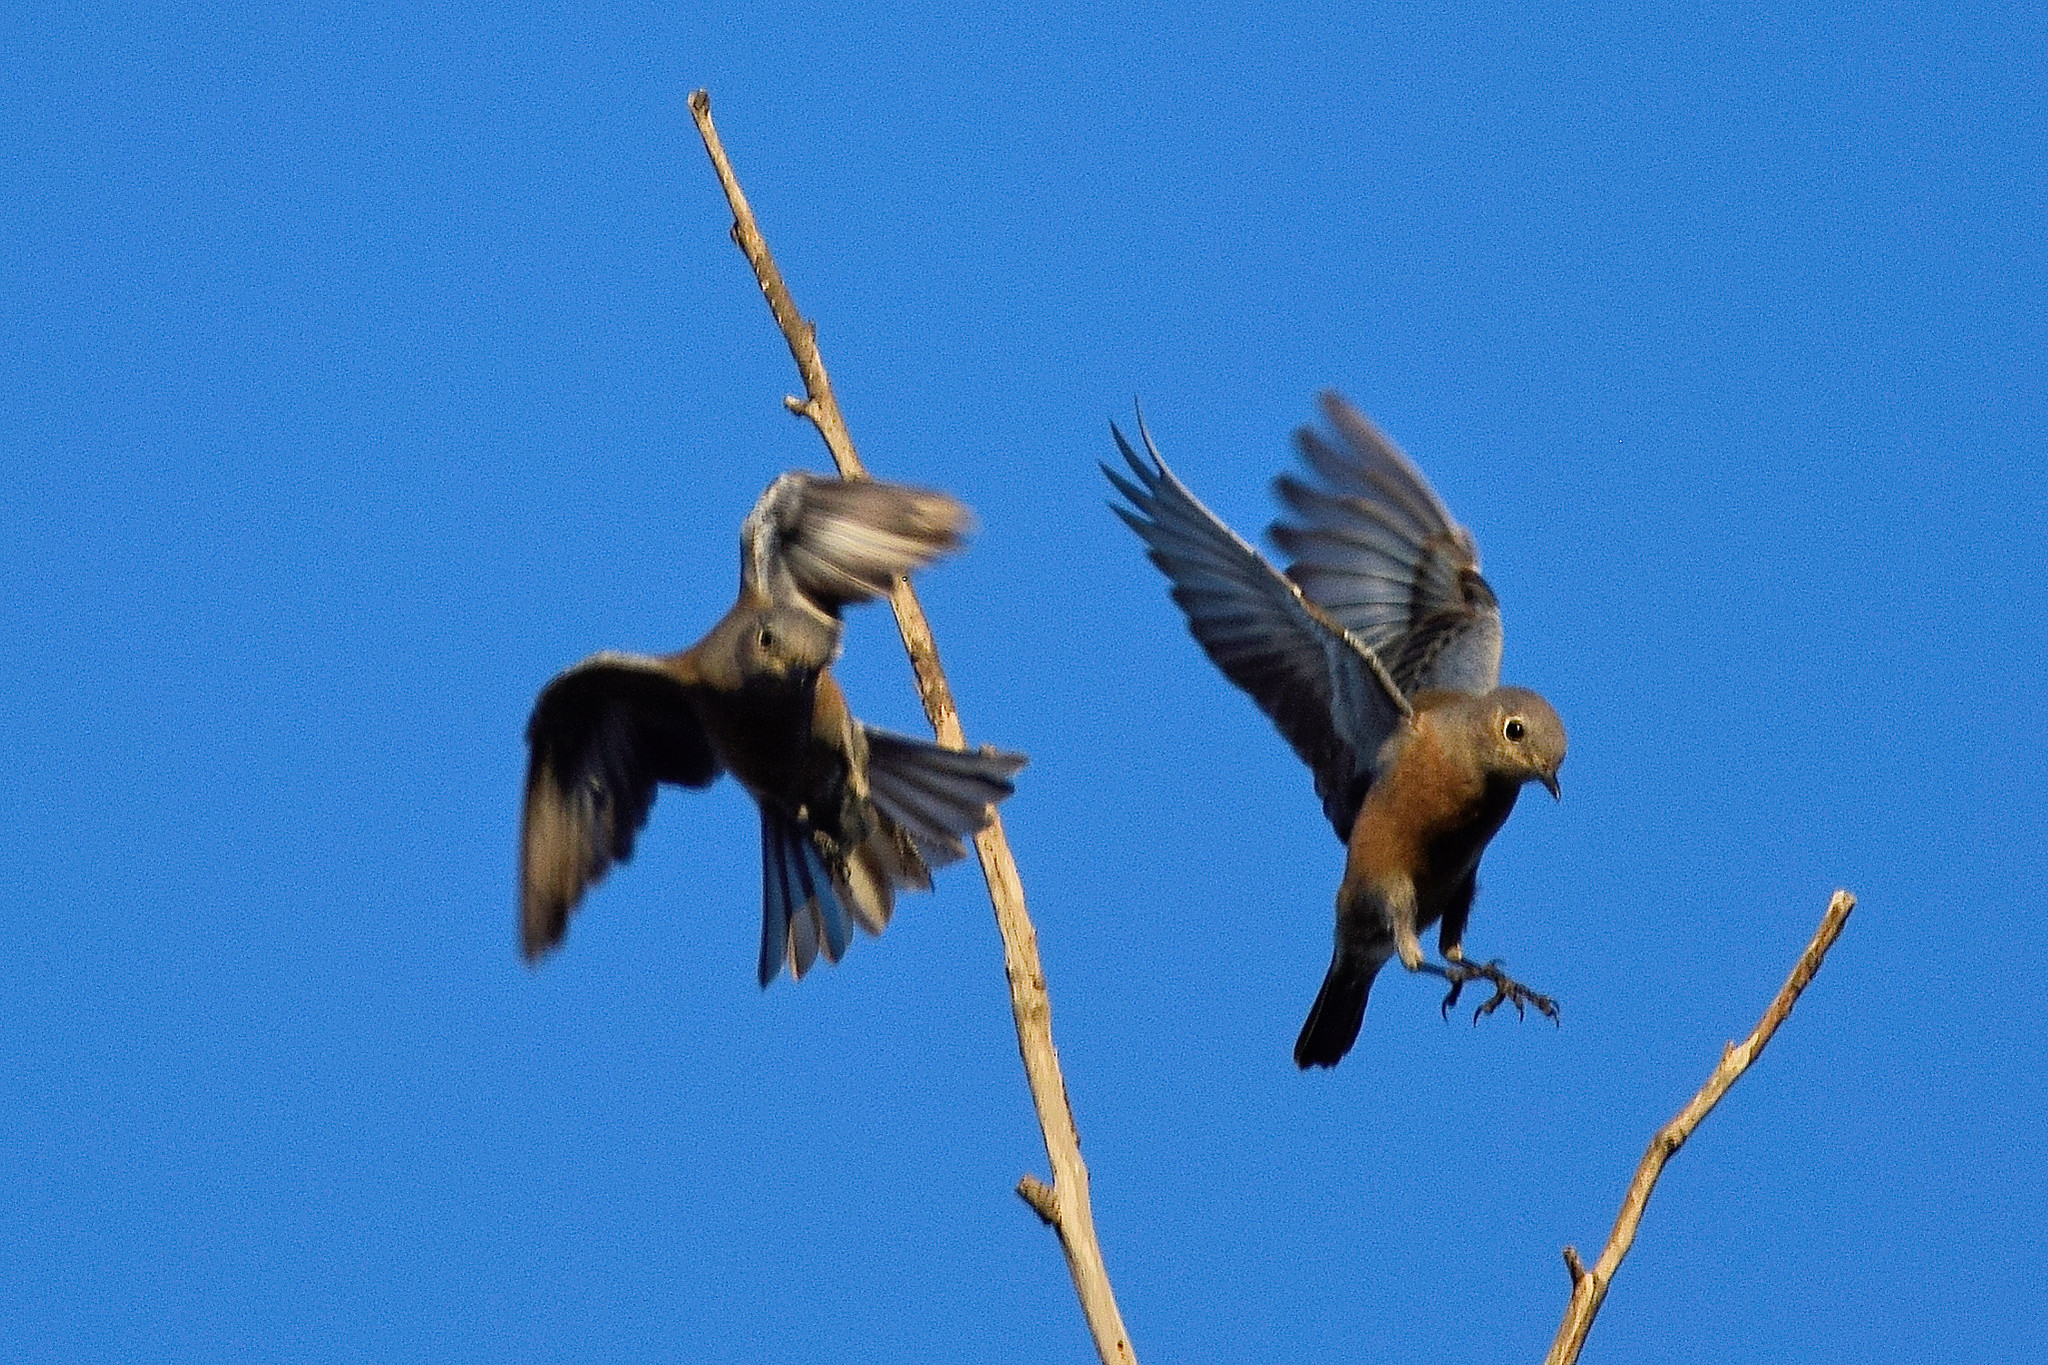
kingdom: Animalia
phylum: Chordata
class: Aves
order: Passeriformes
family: Turdidae
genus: Sialia
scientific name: Sialia mexicana
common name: Western bluebird
